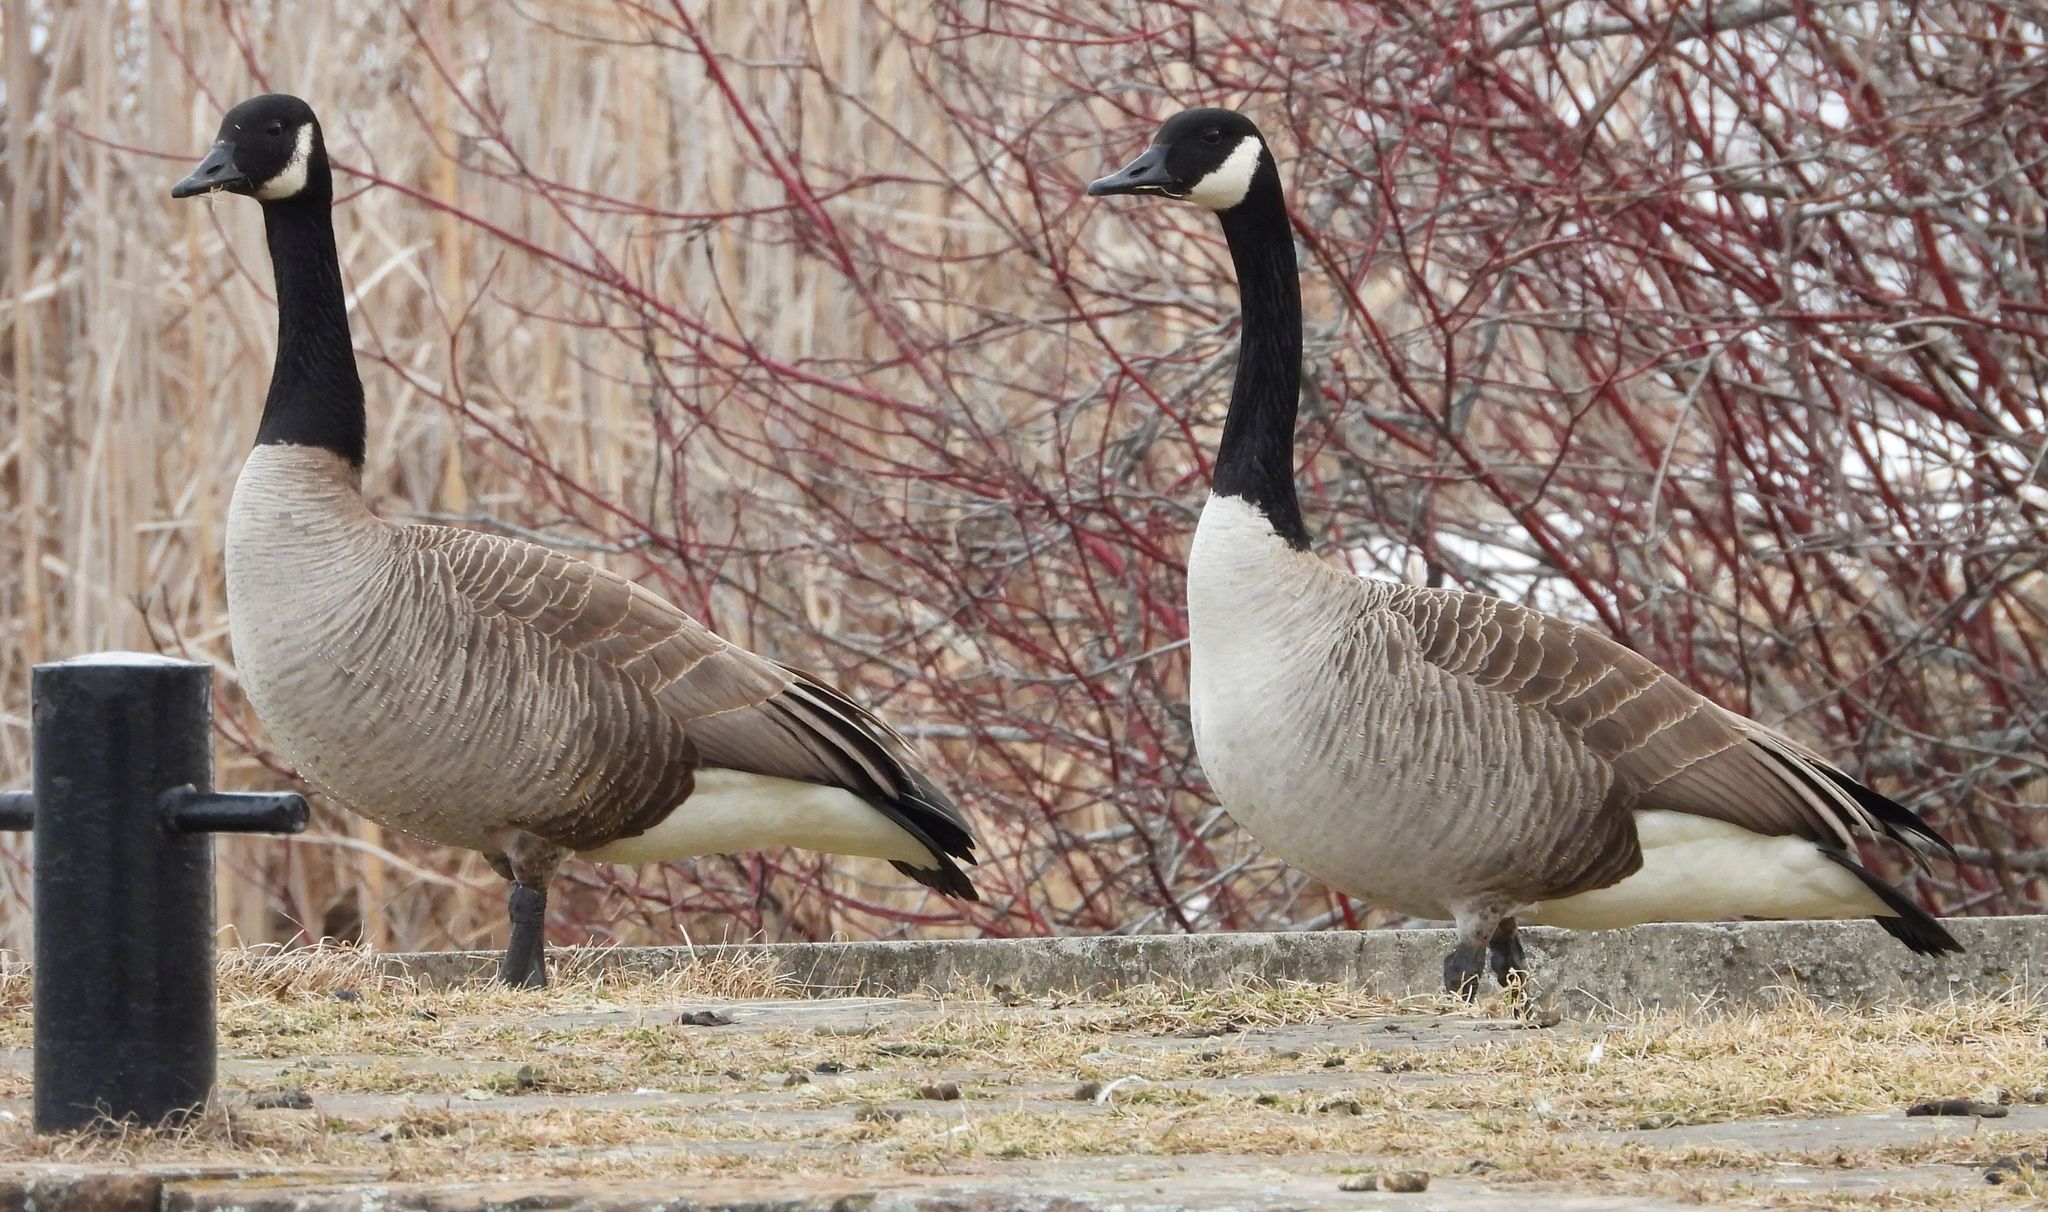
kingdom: Animalia
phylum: Chordata
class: Aves
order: Anseriformes
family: Anatidae
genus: Branta
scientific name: Branta canadensis
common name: Canada goose
